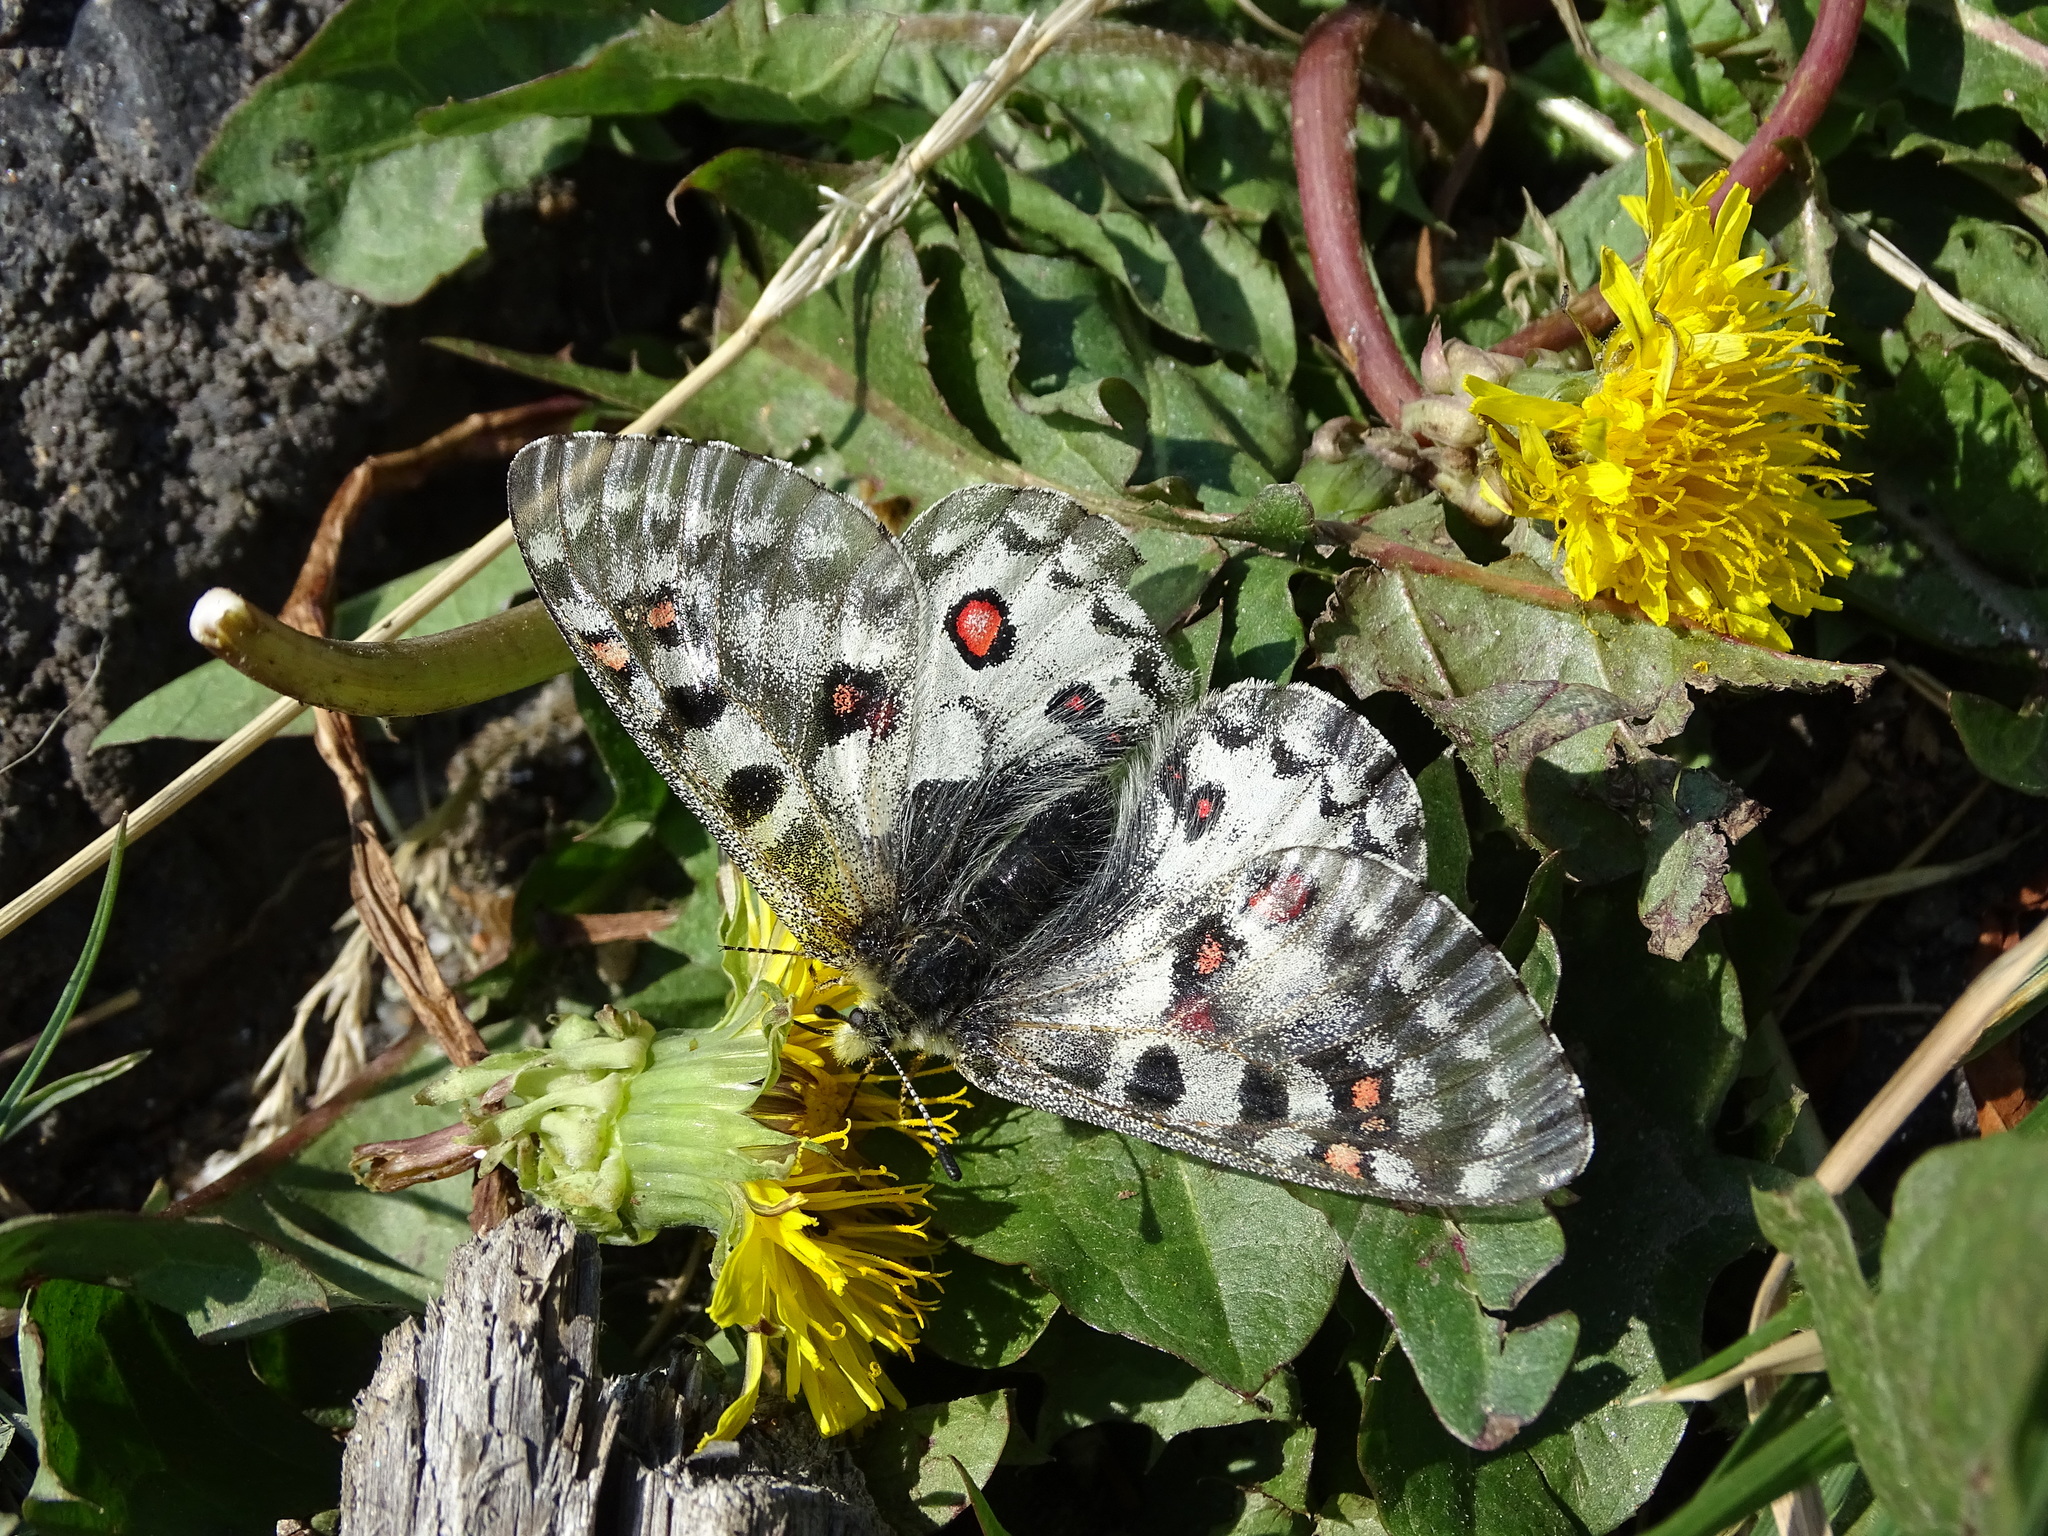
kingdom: Animalia
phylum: Arthropoda
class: Insecta
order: Lepidoptera
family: Papilionidae
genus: Parnassius
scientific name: Parnassius smintheus
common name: Mountain parnassian
